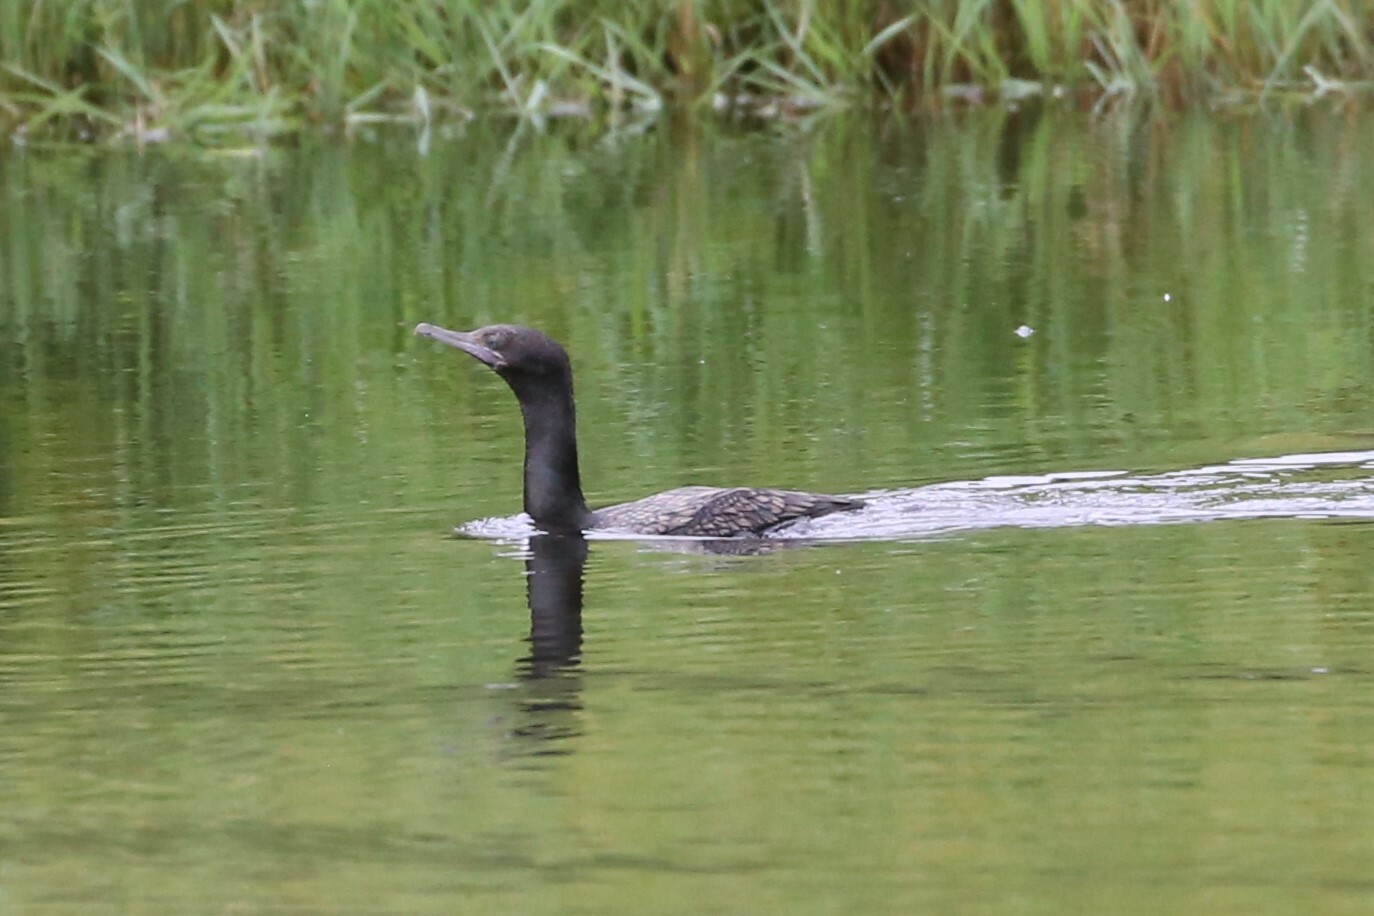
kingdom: Animalia
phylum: Chordata
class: Aves
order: Suliformes
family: Phalacrocoracidae
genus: Phalacrocorax
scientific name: Phalacrocorax sulcirostris
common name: Little black cormorant
